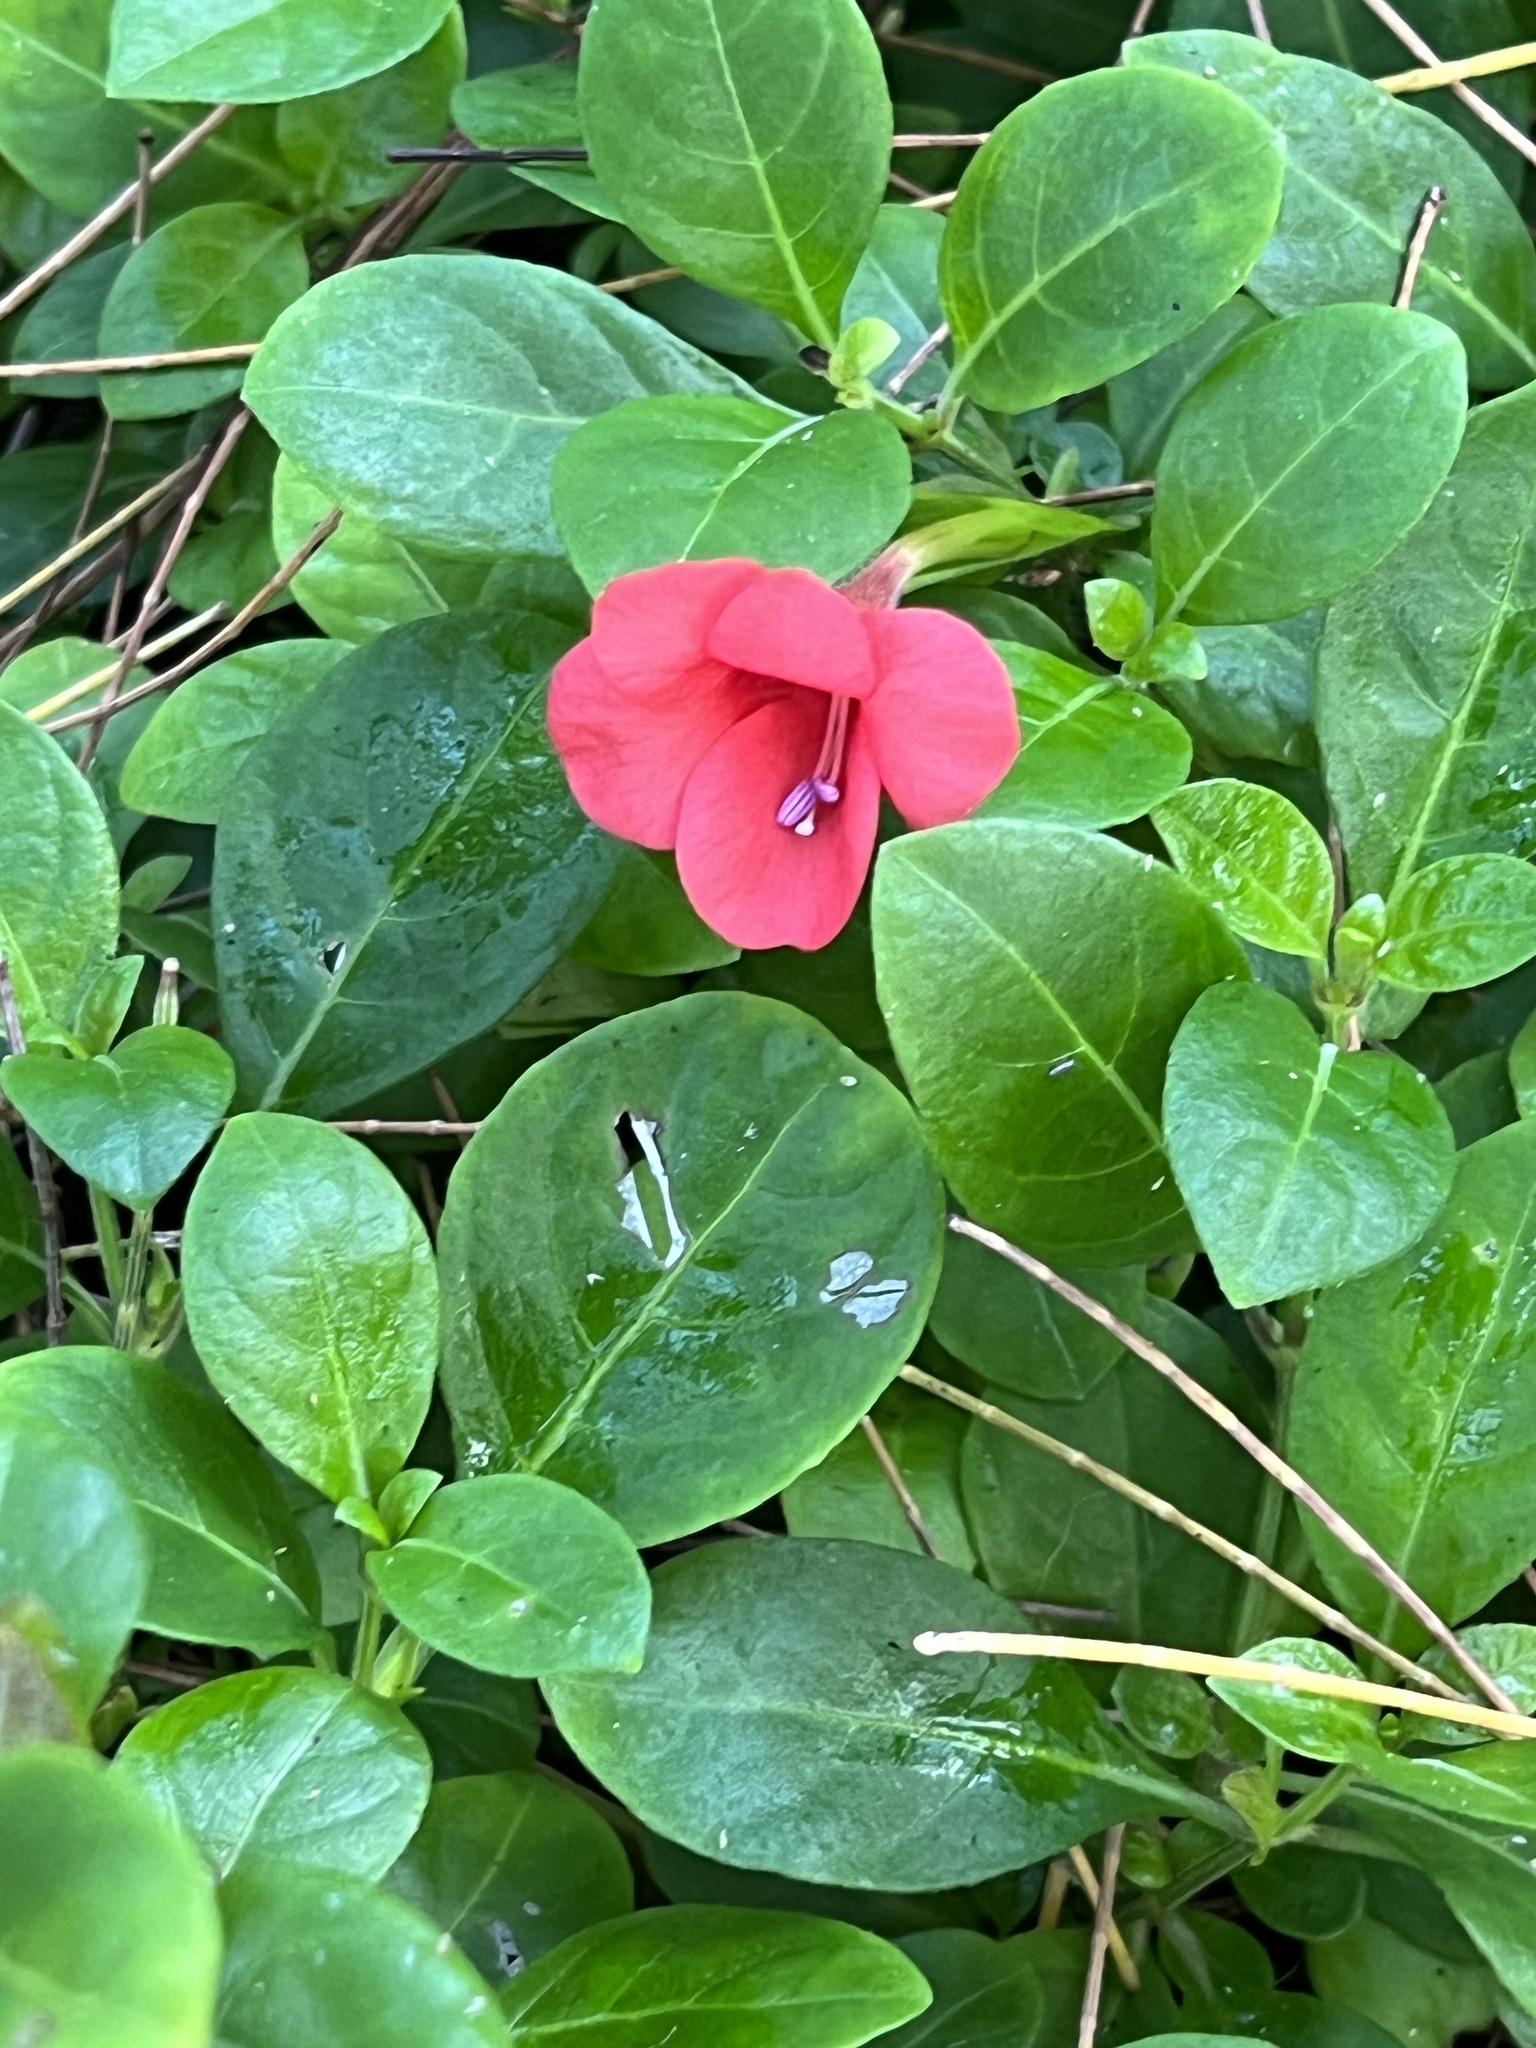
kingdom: Plantae
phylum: Tracheophyta
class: Magnoliopsida
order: Lamiales
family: Acanthaceae
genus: Barleria
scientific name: Barleria repens
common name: Pink-ruellia
